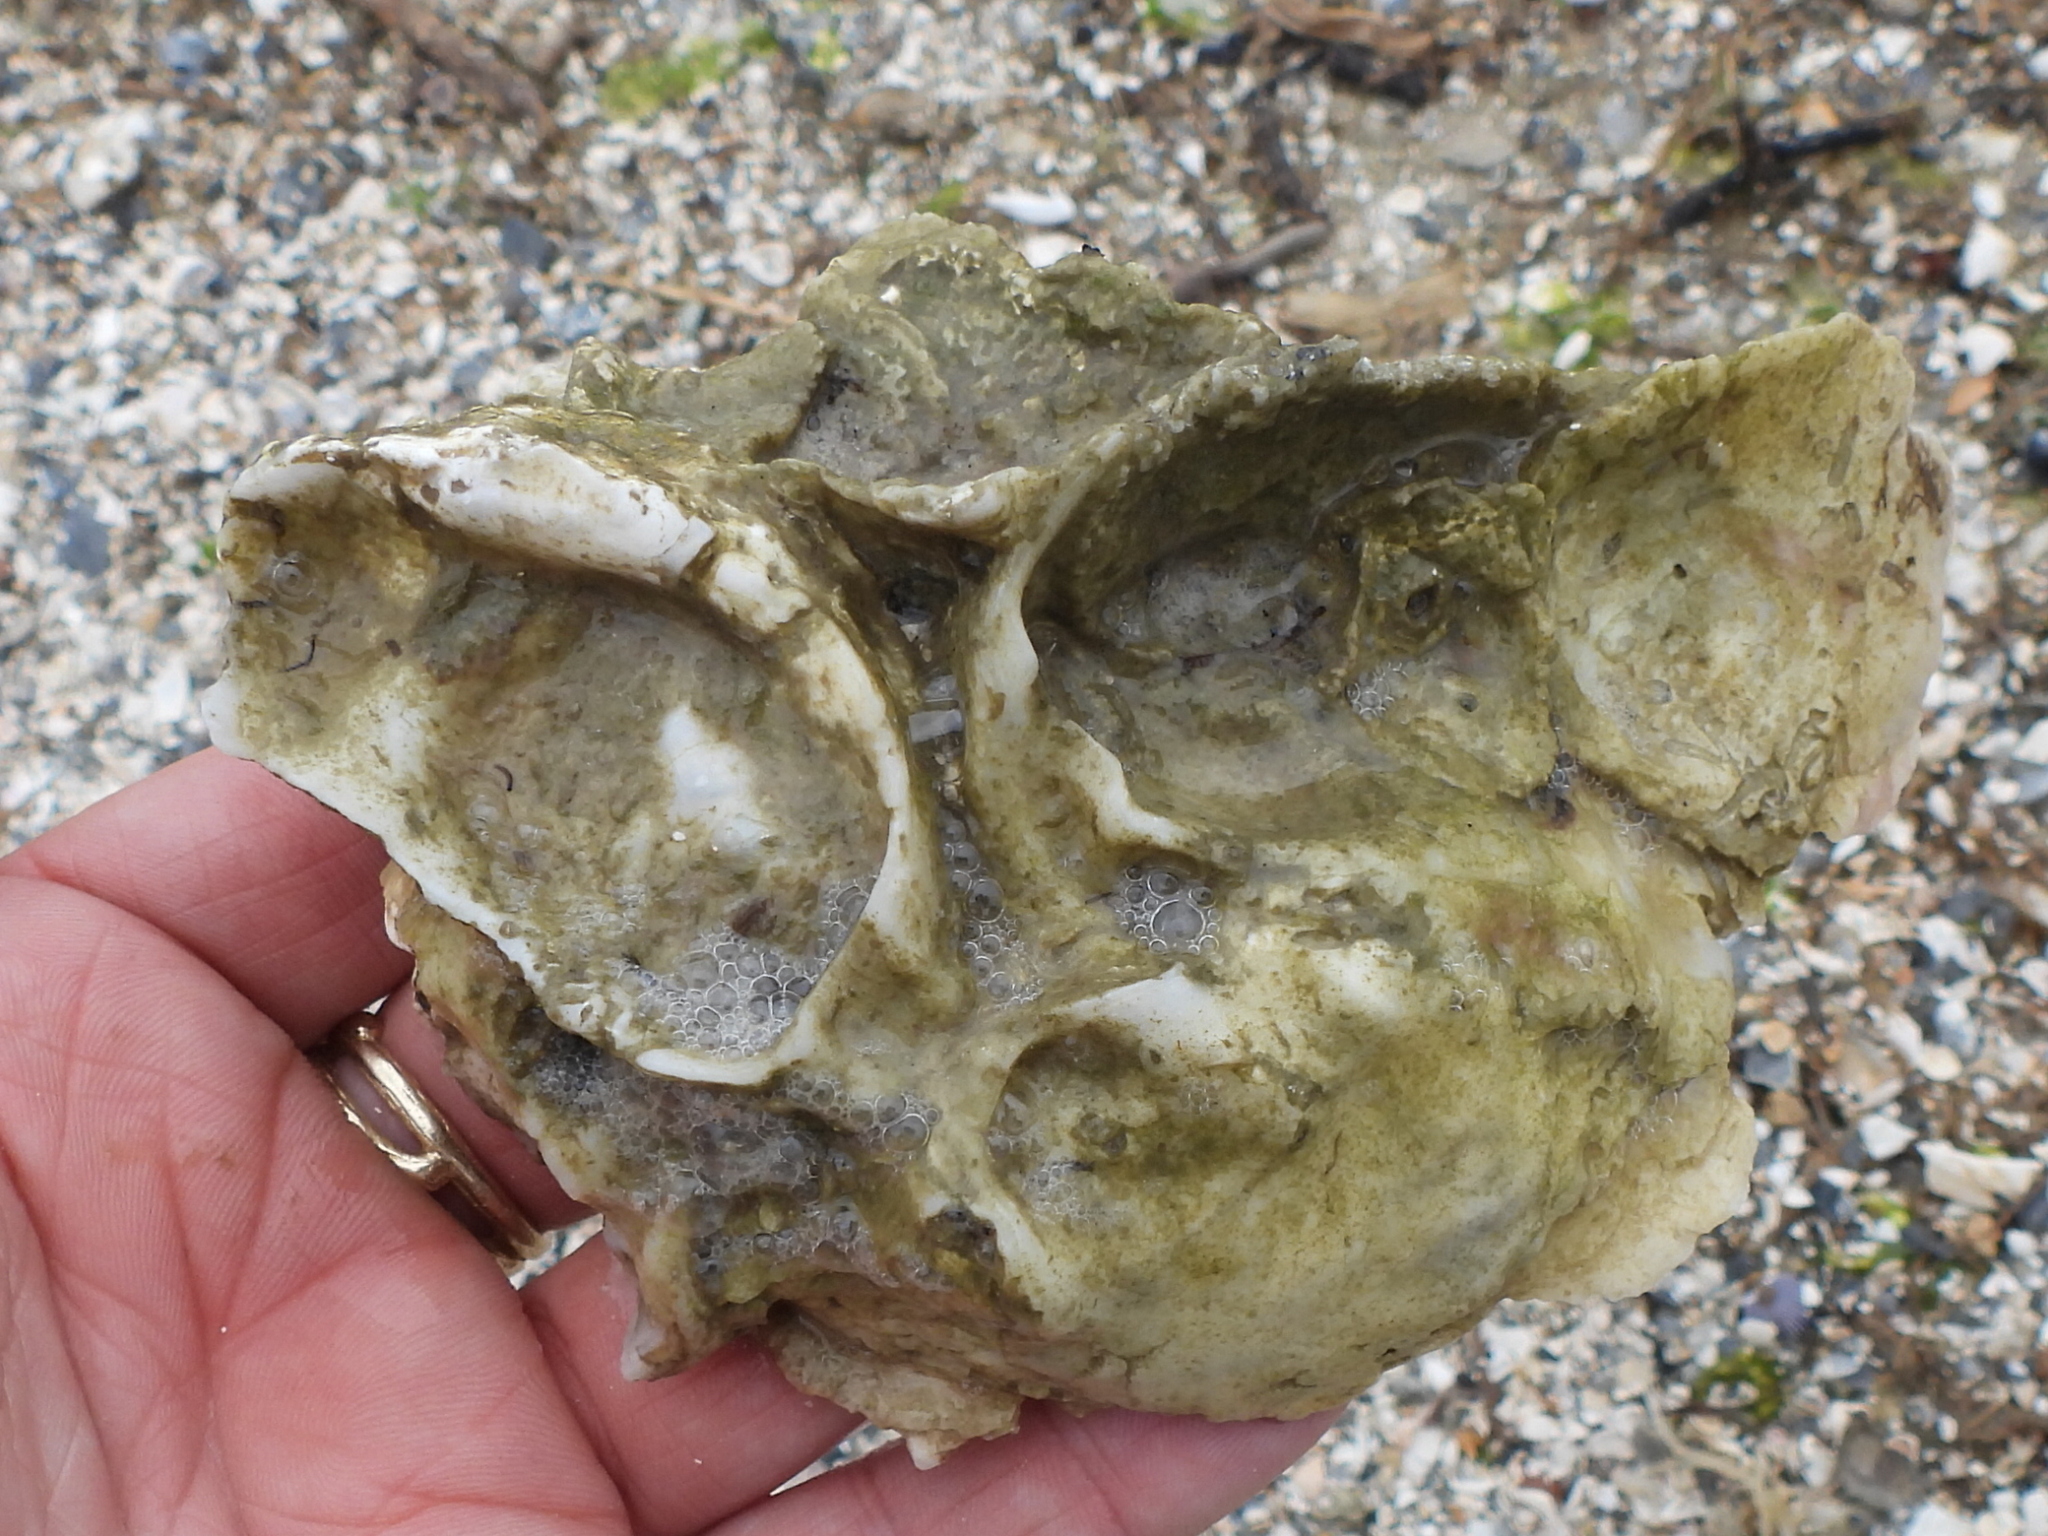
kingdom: Animalia
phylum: Mollusca
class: Bivalvia
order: Ostreida
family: Ostreidae
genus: Crassostrea
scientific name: Crassostrea virginica
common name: American oyster
